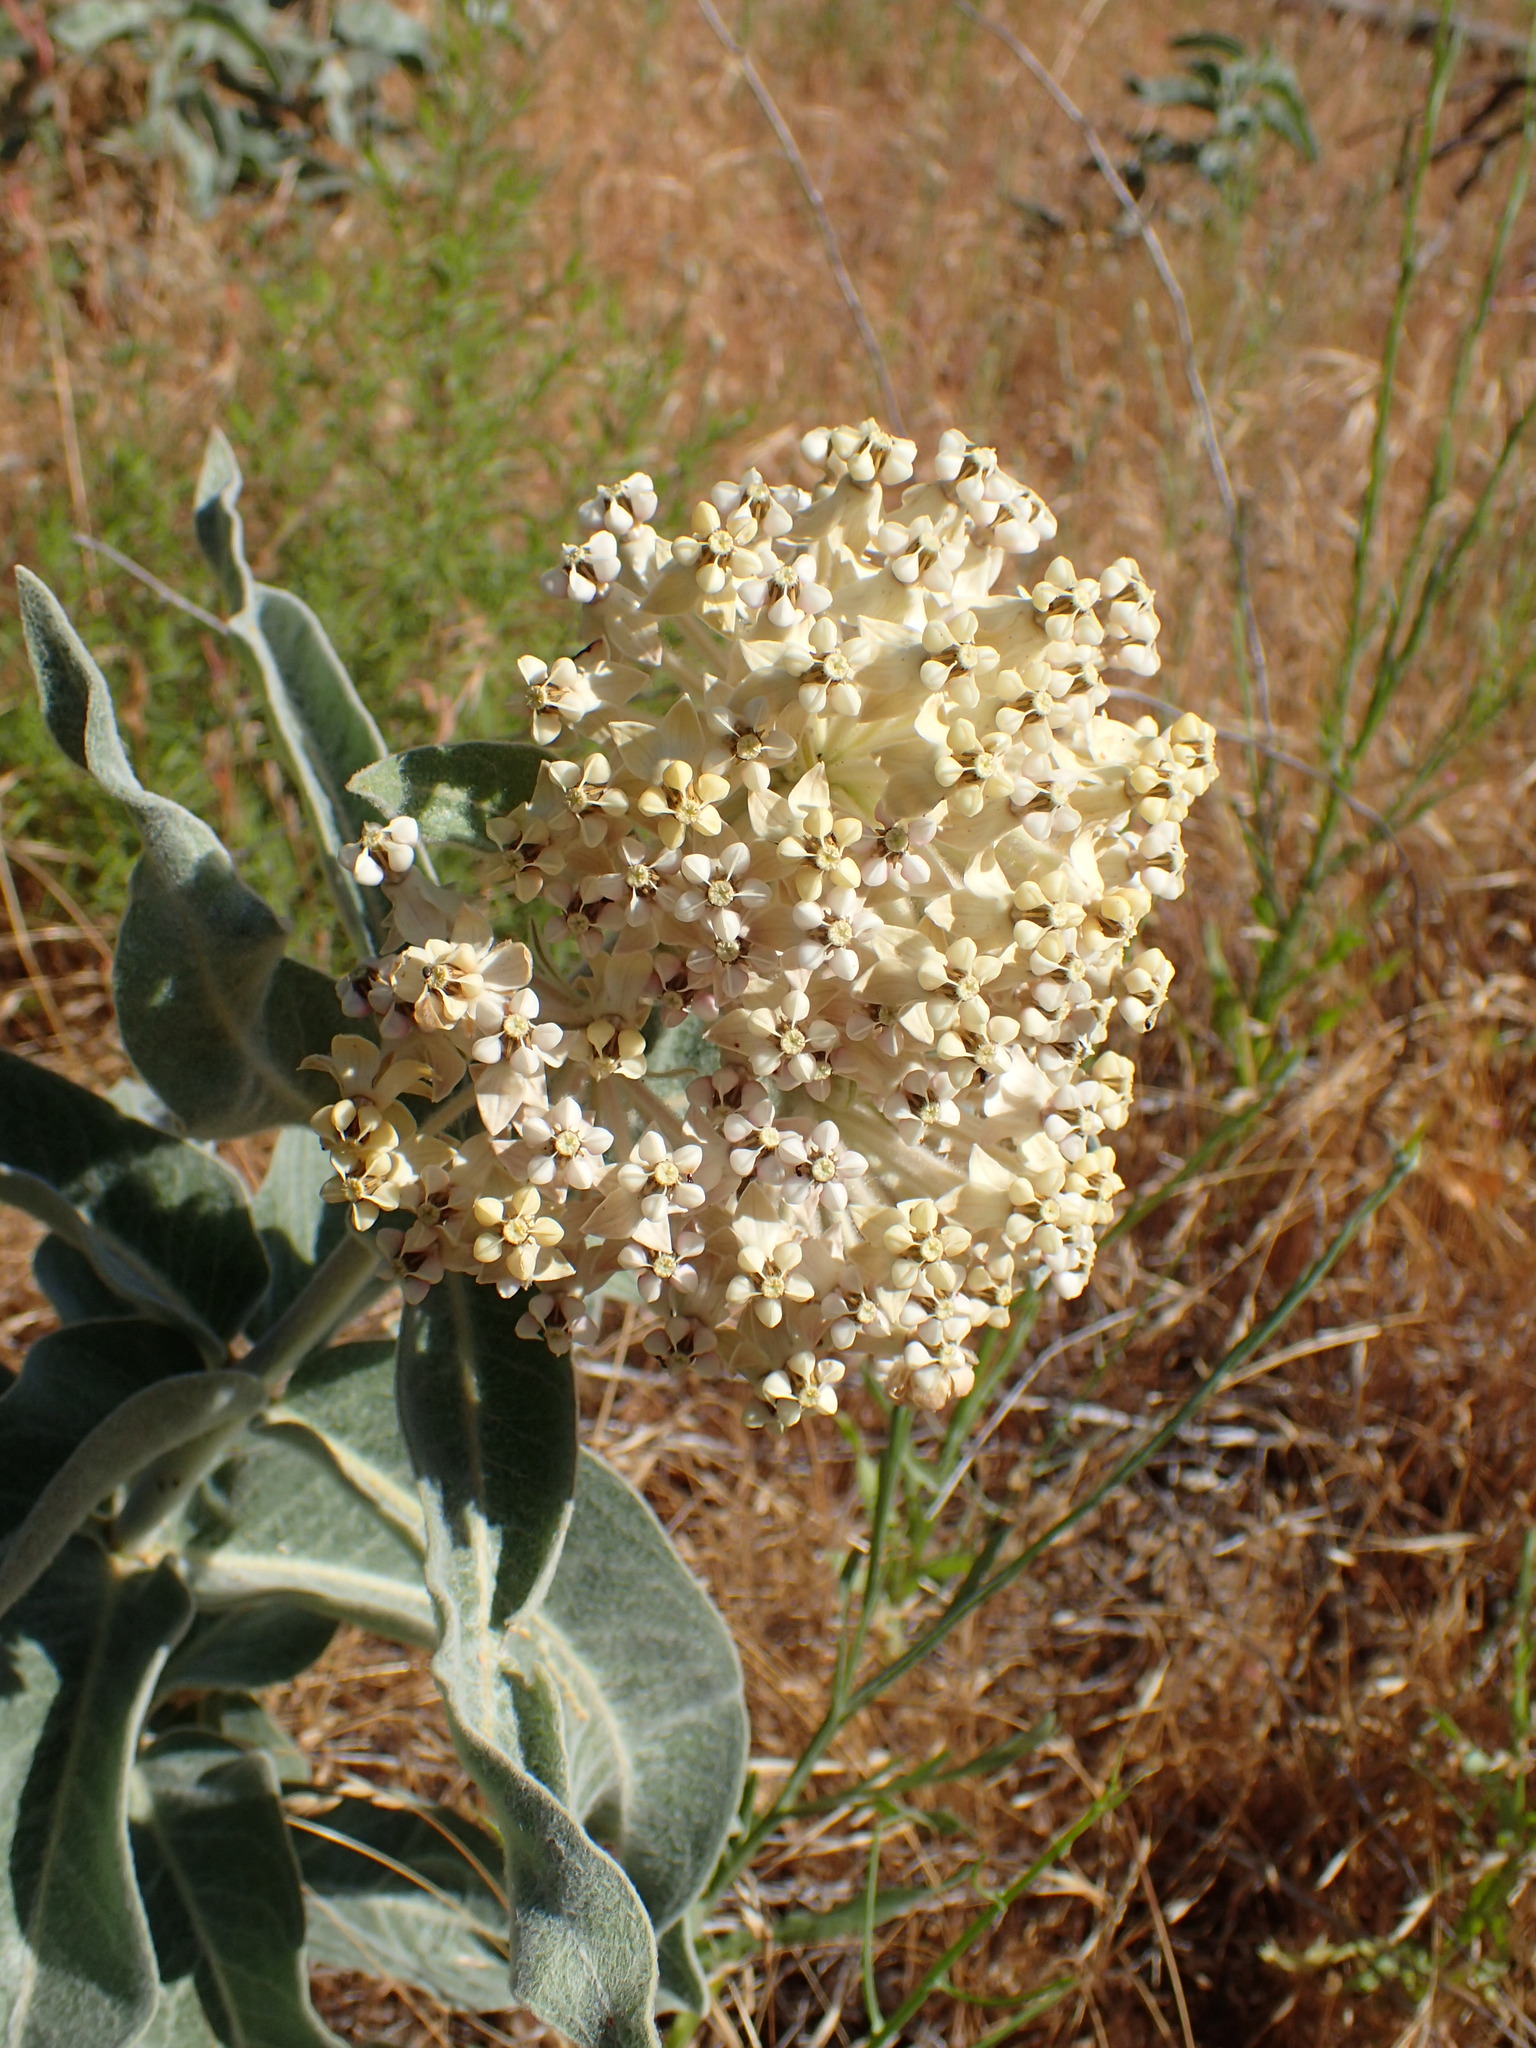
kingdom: Plantae
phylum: Tracheophyta
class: Magnoliopsida
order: Gentianales
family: Apocynaceae
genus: Asclepias
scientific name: Asclepias eriocarpa
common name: Indian milkweed
